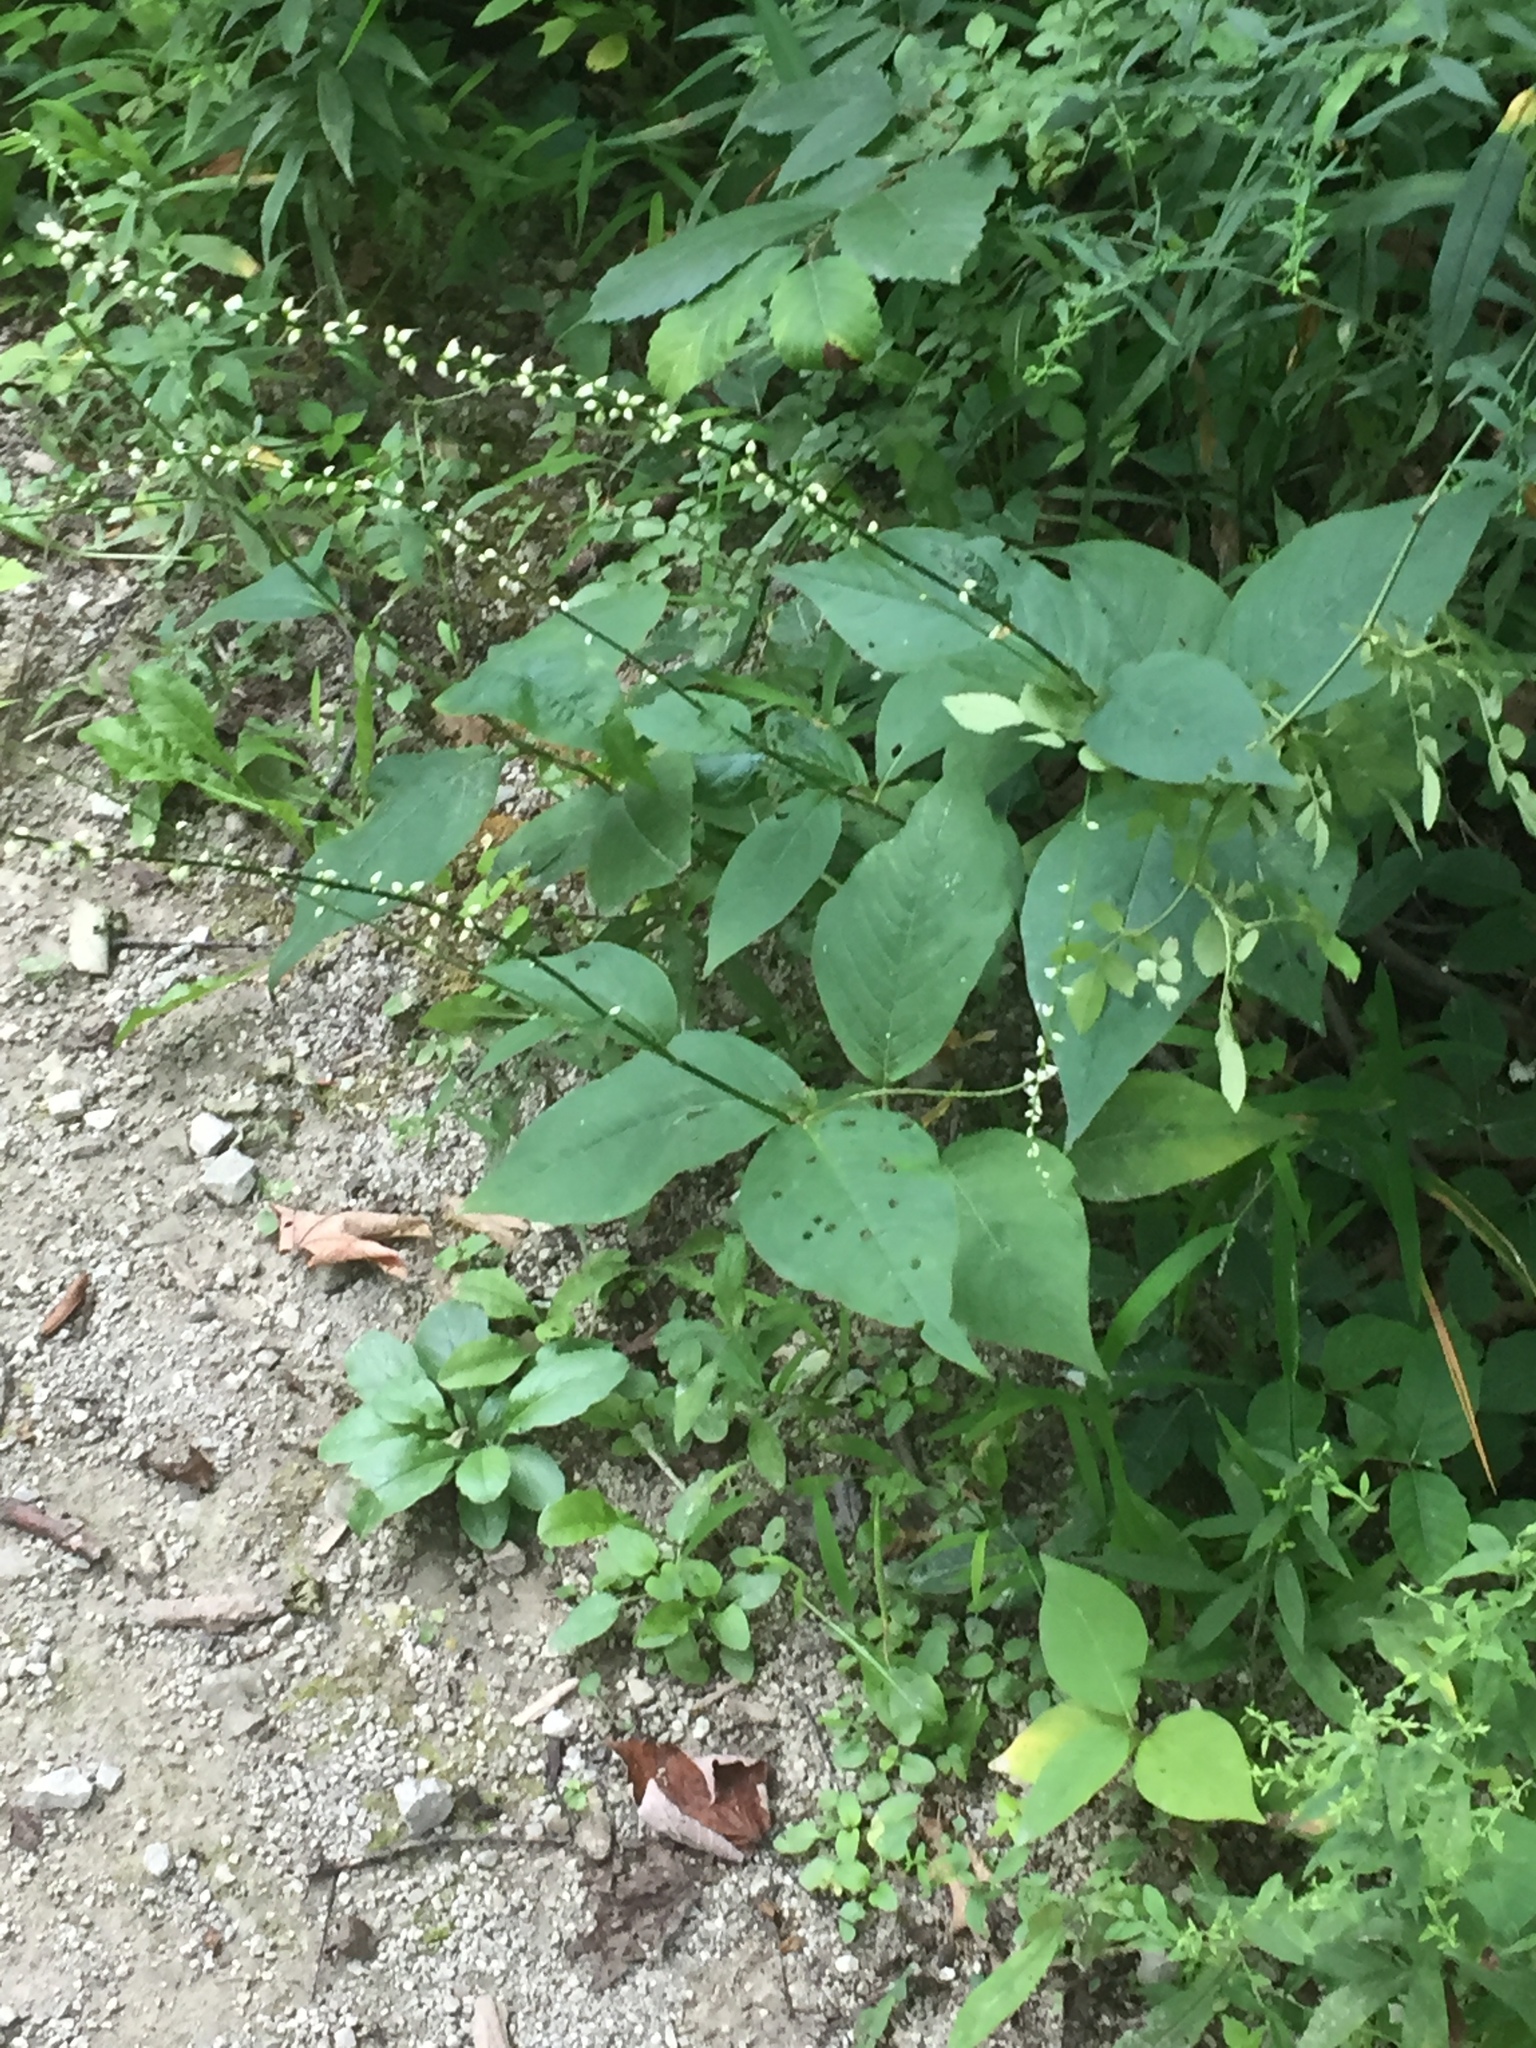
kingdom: Plantae
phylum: Tracheophyta
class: Magnoliopsida
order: Caryophyllales
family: Polygonaceae
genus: Persicaria
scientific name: Persicaria virginiana
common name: Jumpseed
